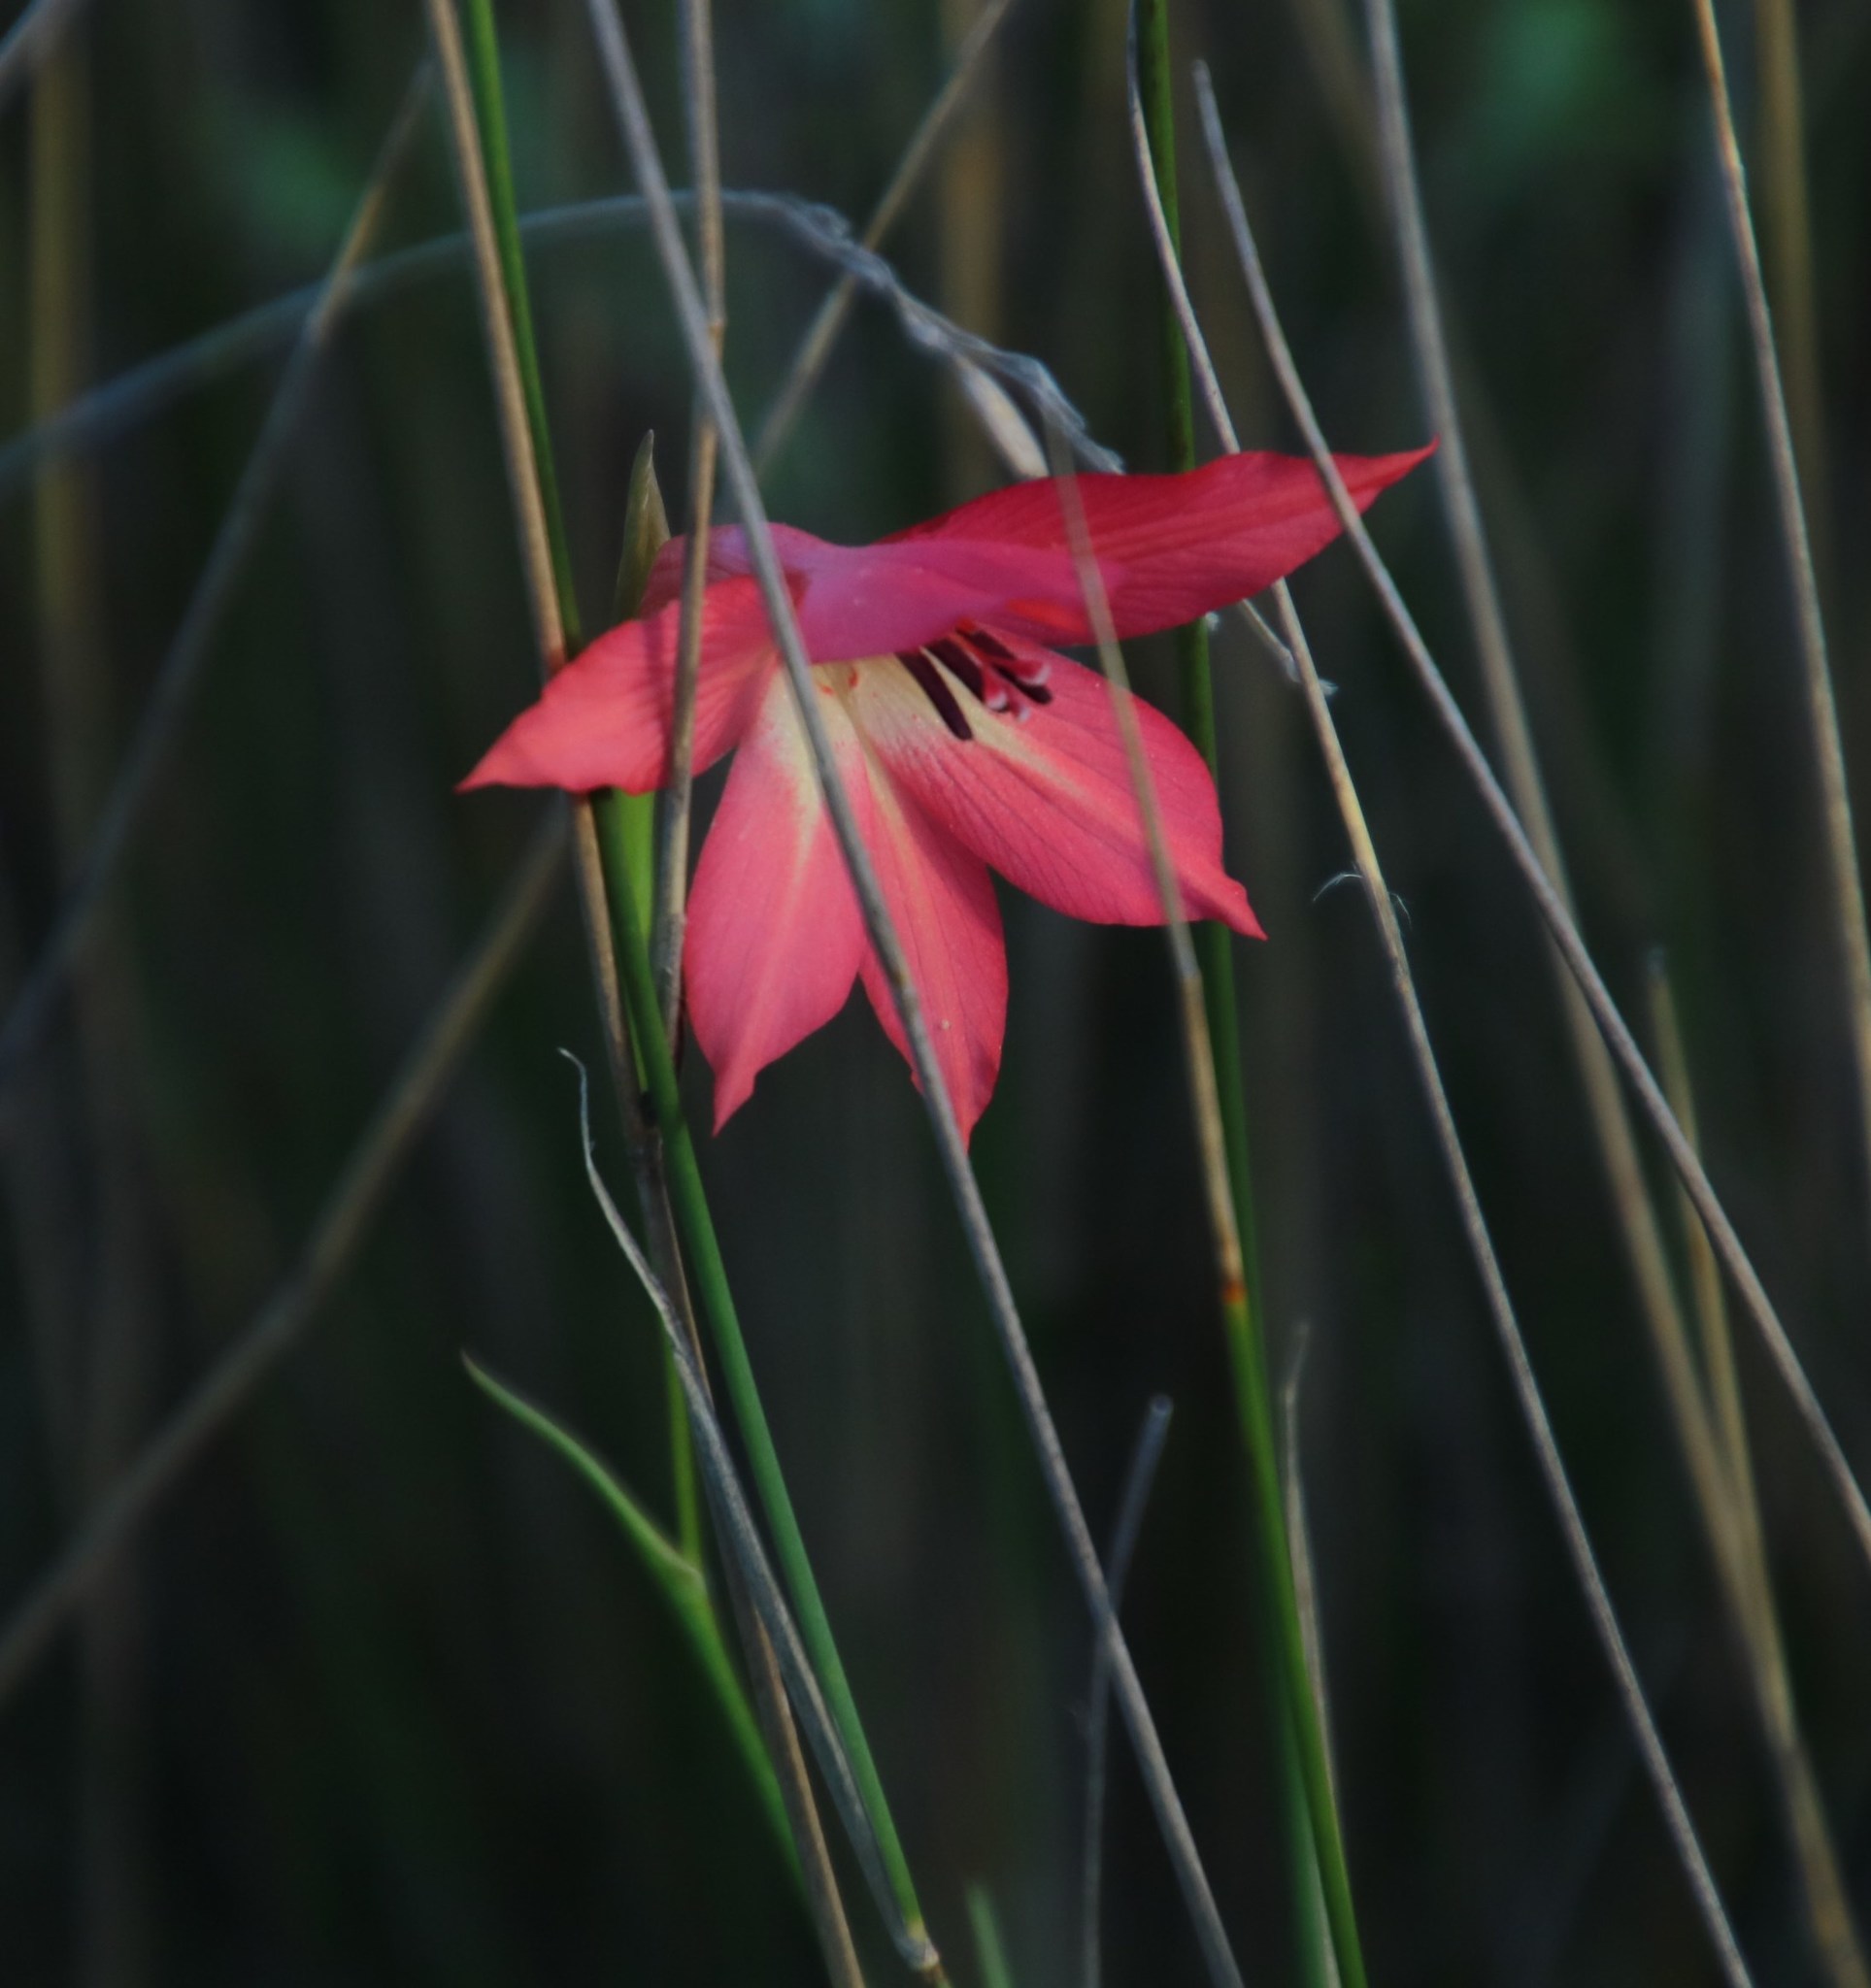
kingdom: Plantae
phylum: Tracheophyta
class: Liliopsida
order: Asparagales
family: Iridaceae
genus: Gladiolus
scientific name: Gladiolus priorii
